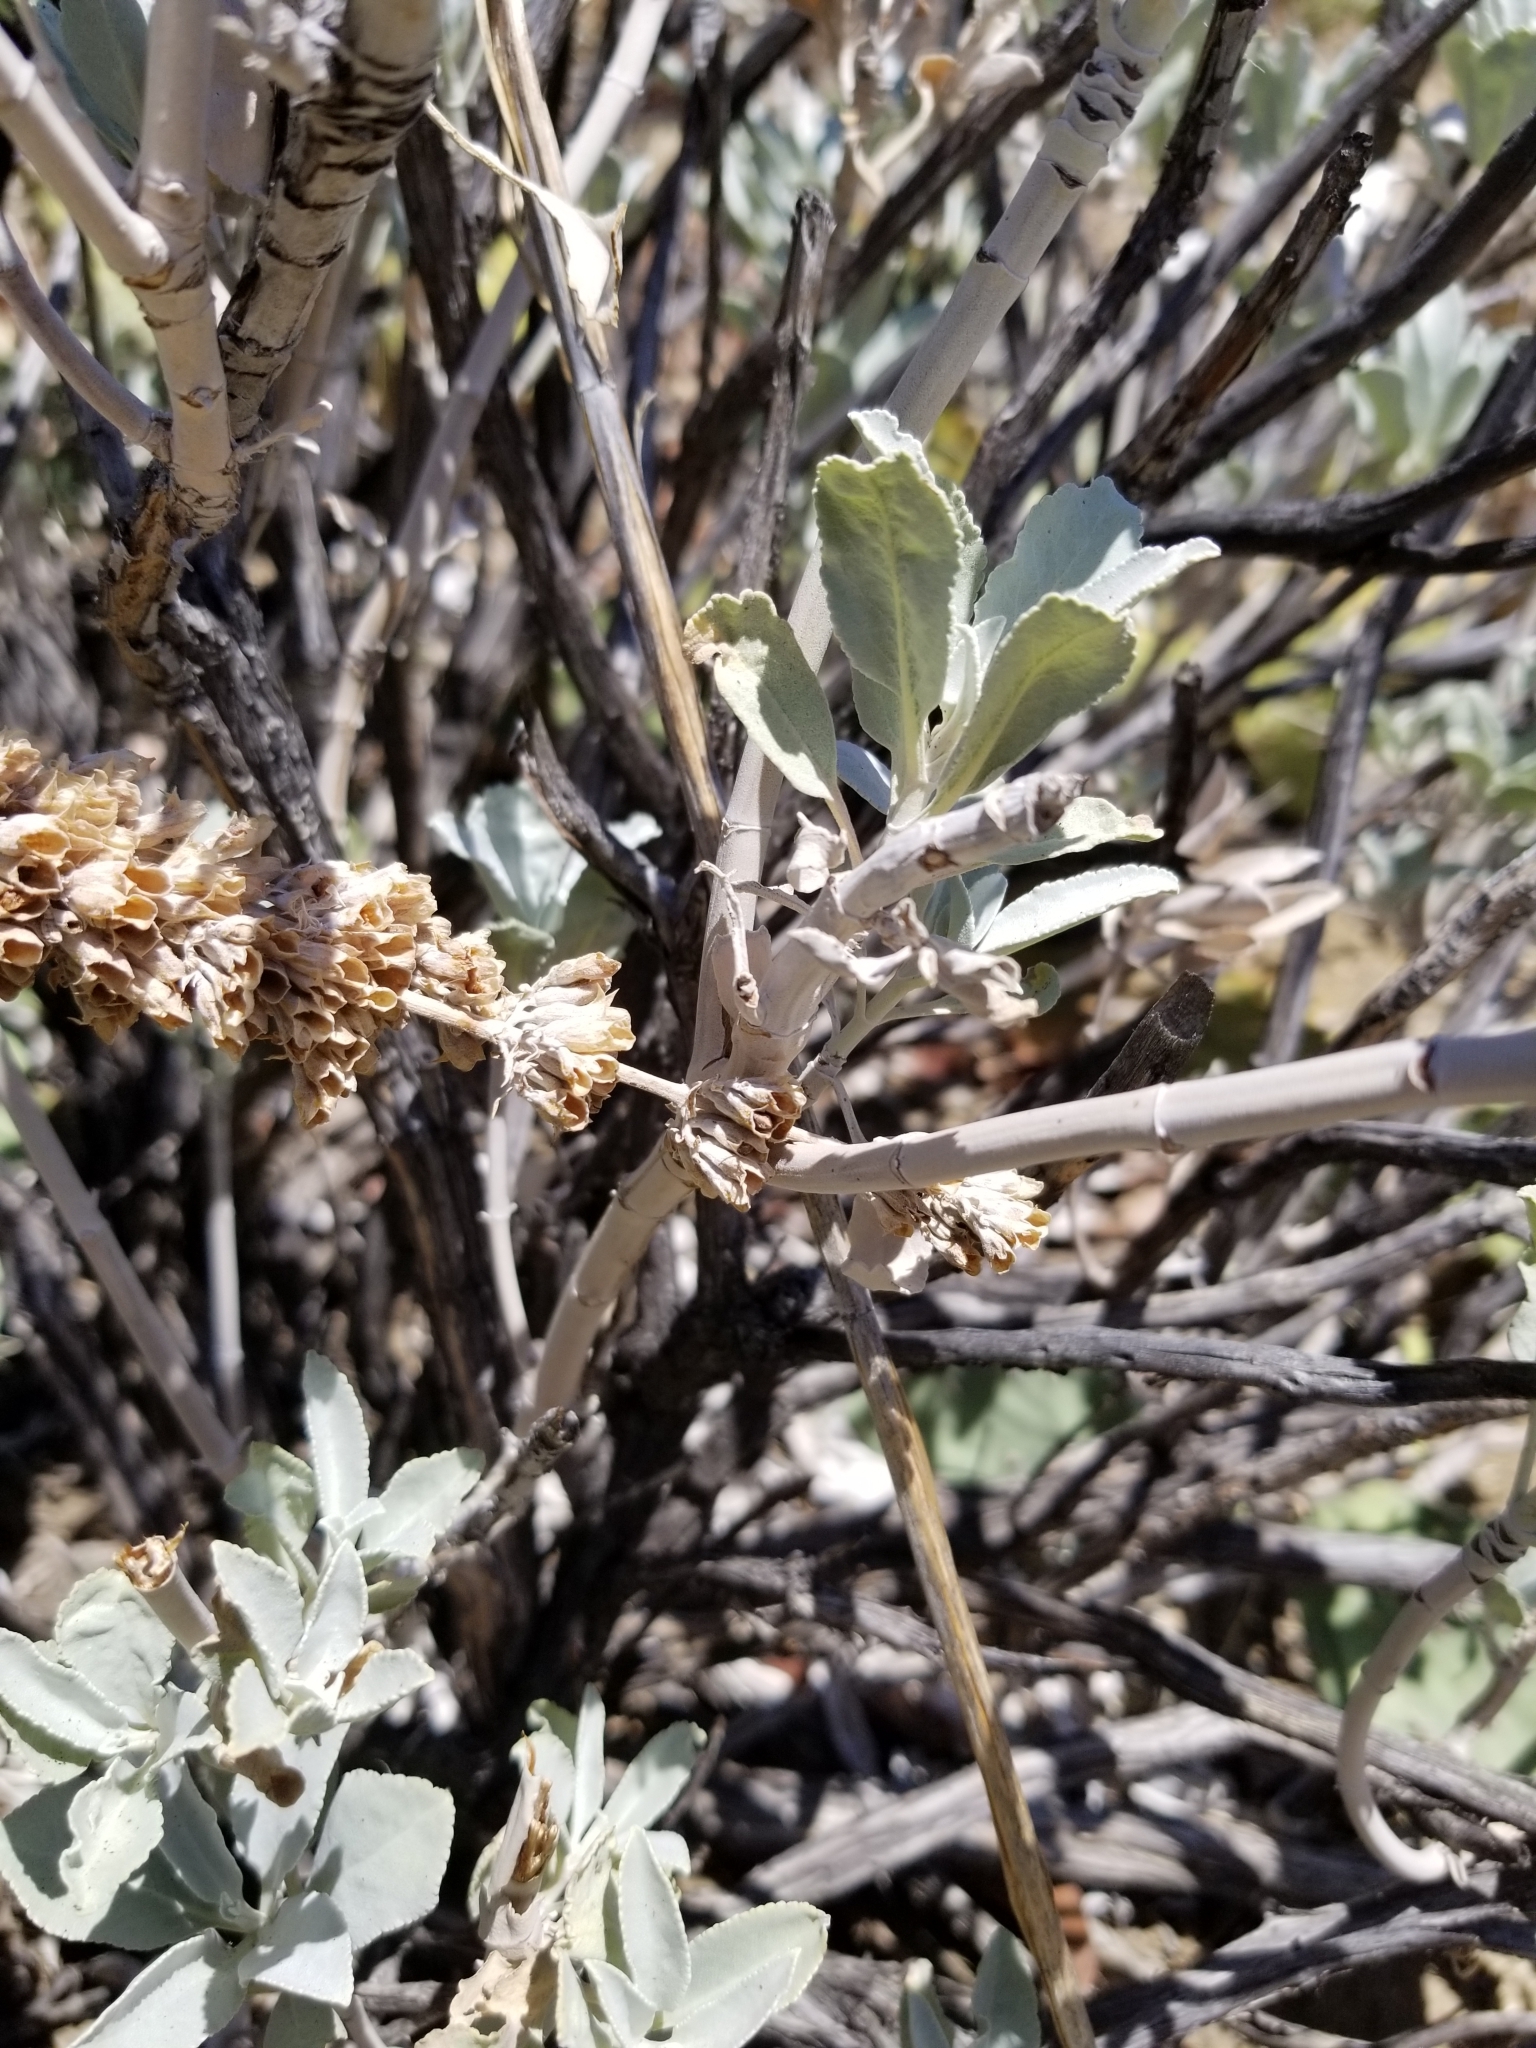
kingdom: Plantae
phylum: Tracheophyta
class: Magnoliopsida
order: Lamiales
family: Lamiaceae
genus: Salvia
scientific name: Salvia apiana
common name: White sage
